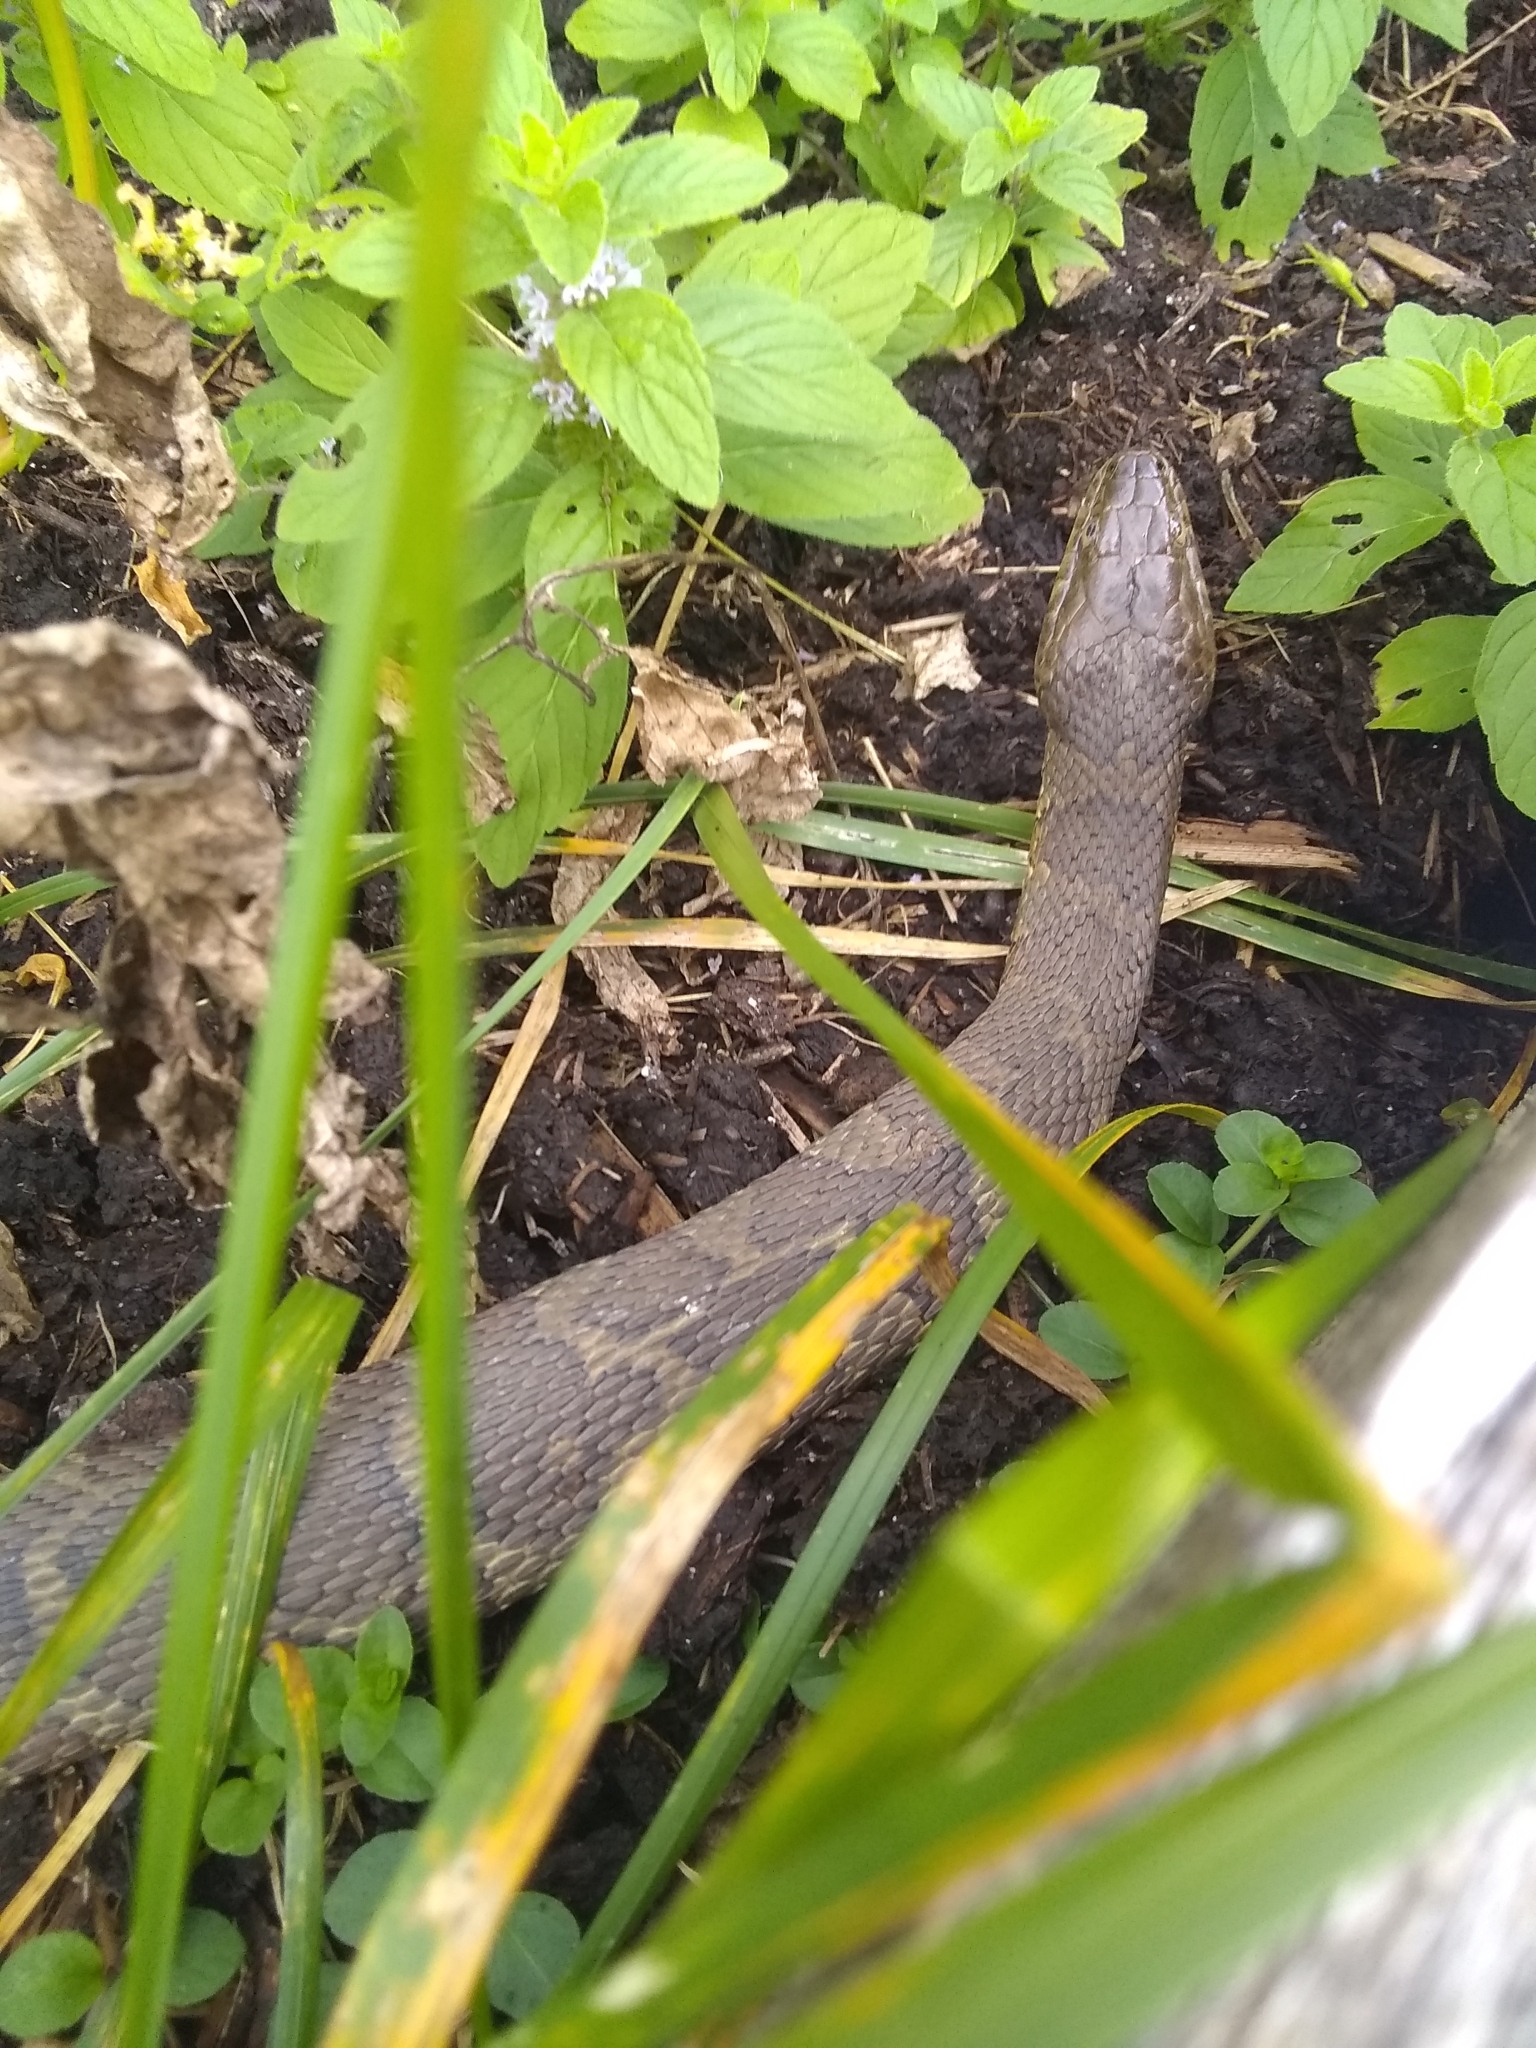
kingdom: Animalia
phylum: Chordata
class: Squamata
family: Colubridae
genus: Nerodia
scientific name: Nerodia sipedon
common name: Northern water snake
